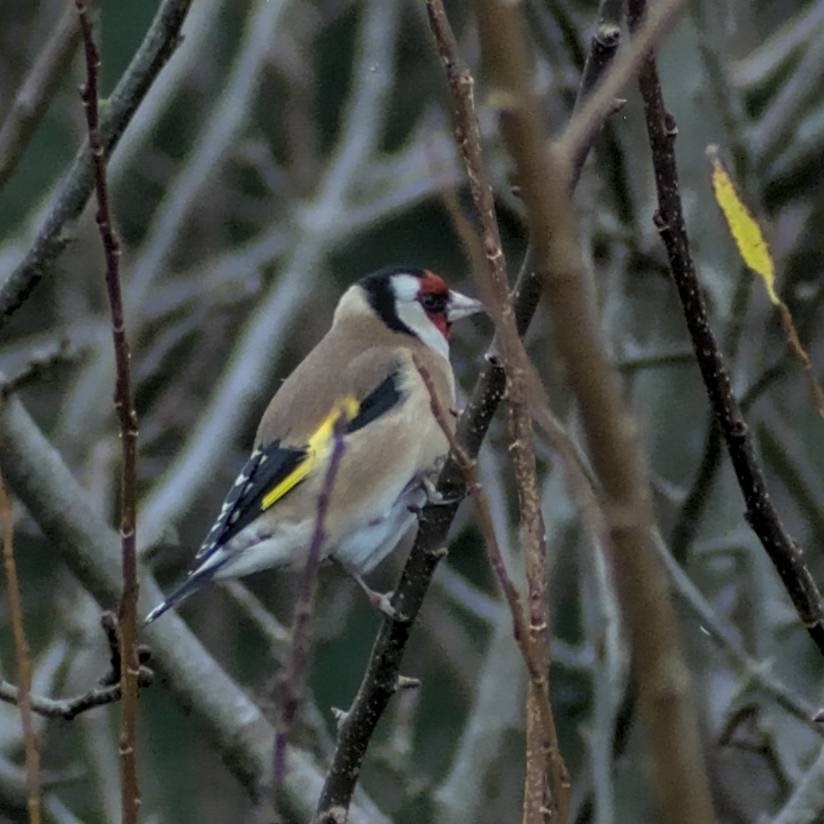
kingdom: Animalia
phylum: Chordata
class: Aves
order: Passeriformes
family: Fringillidae
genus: Carduelis
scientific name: Carduelis carduelis
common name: European goldfinch
